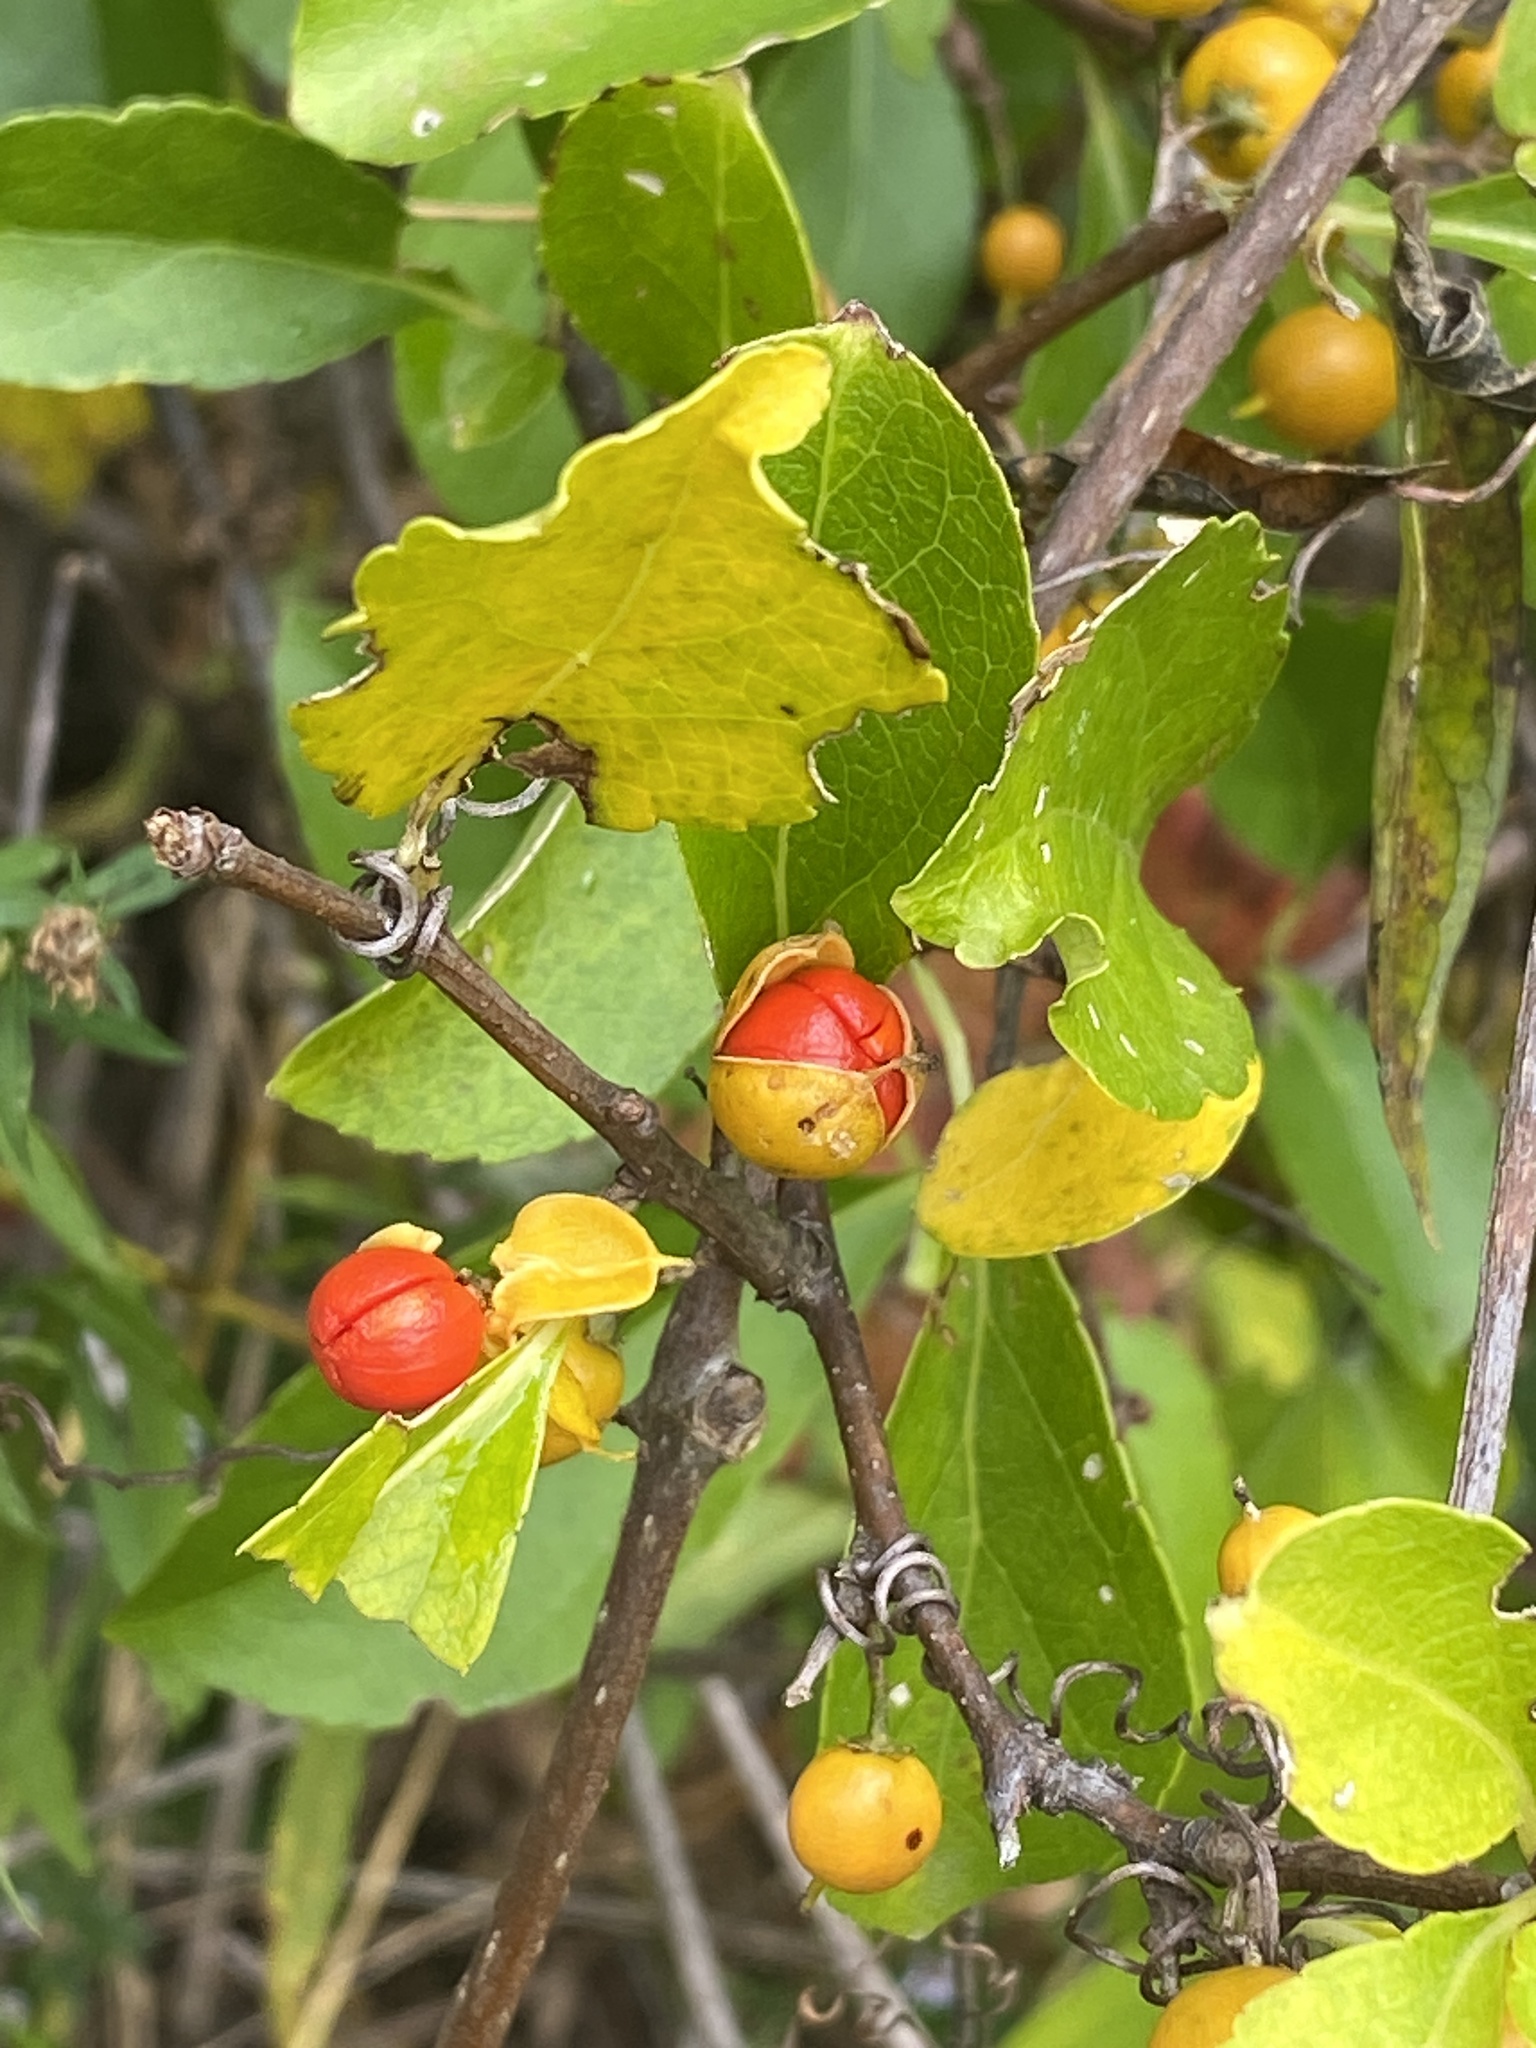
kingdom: Plantae
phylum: Tracheophyta
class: Magnoliopsida
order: Celastrales
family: Celastraceae
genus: Celastrus
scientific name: Celastrus orbiculatus
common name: Oriental bittersweet
